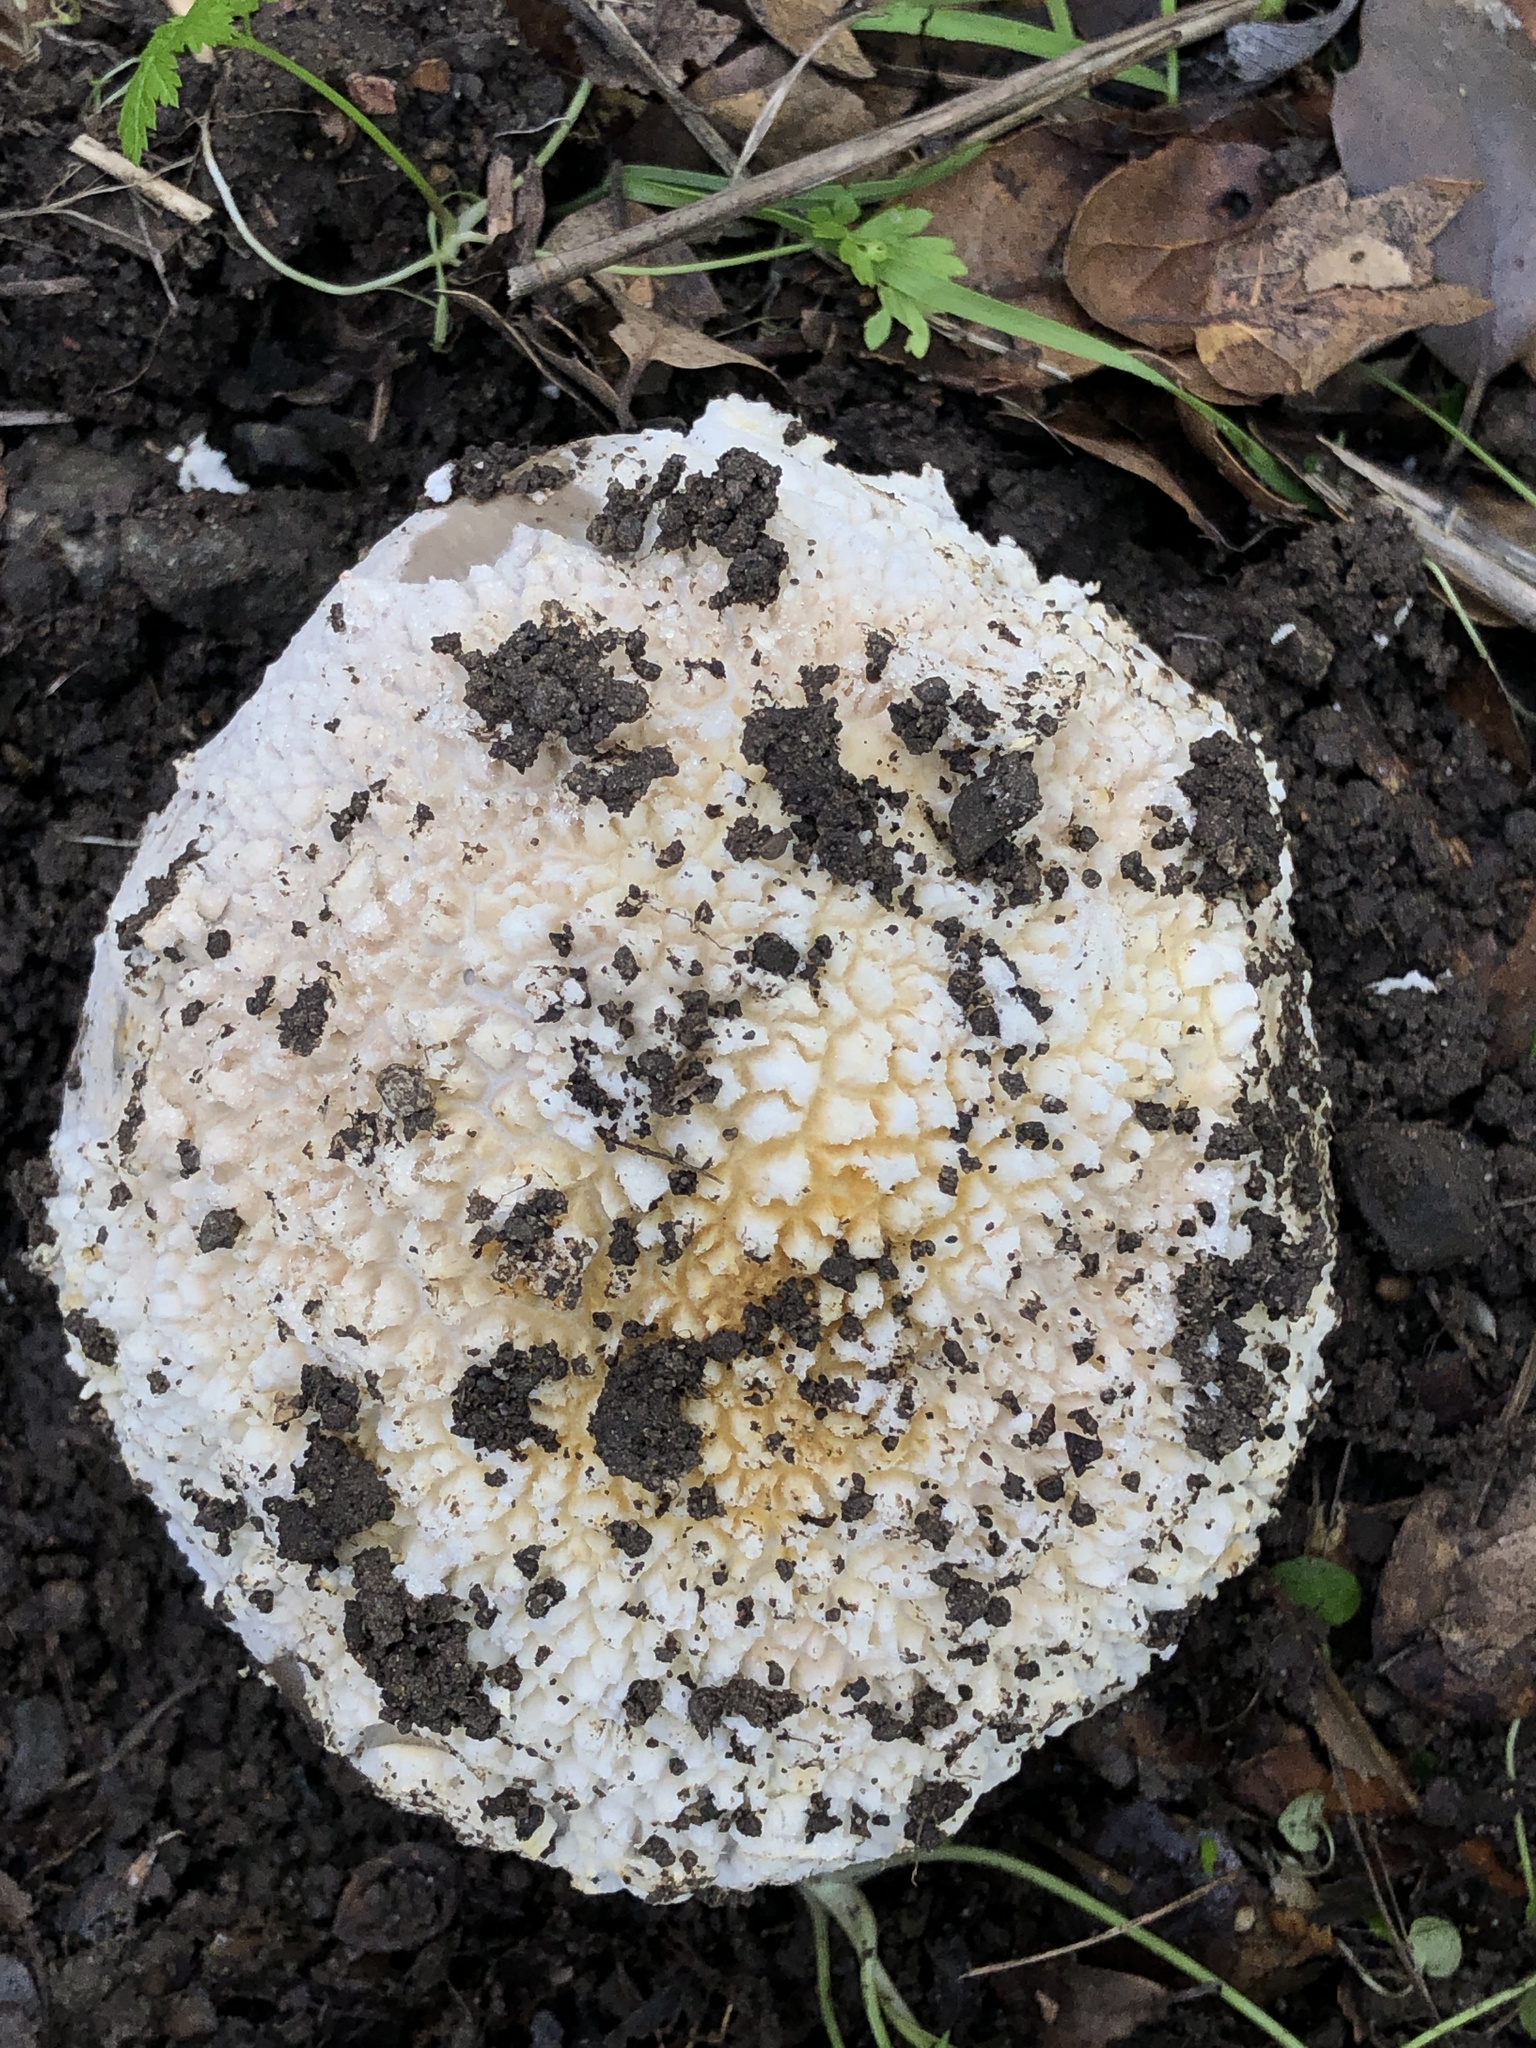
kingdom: Fungi
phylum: Basidiomycota
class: Agaricomycetes
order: Agaricales
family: Amanitaceae
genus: Amanita
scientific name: Amanita protecta
